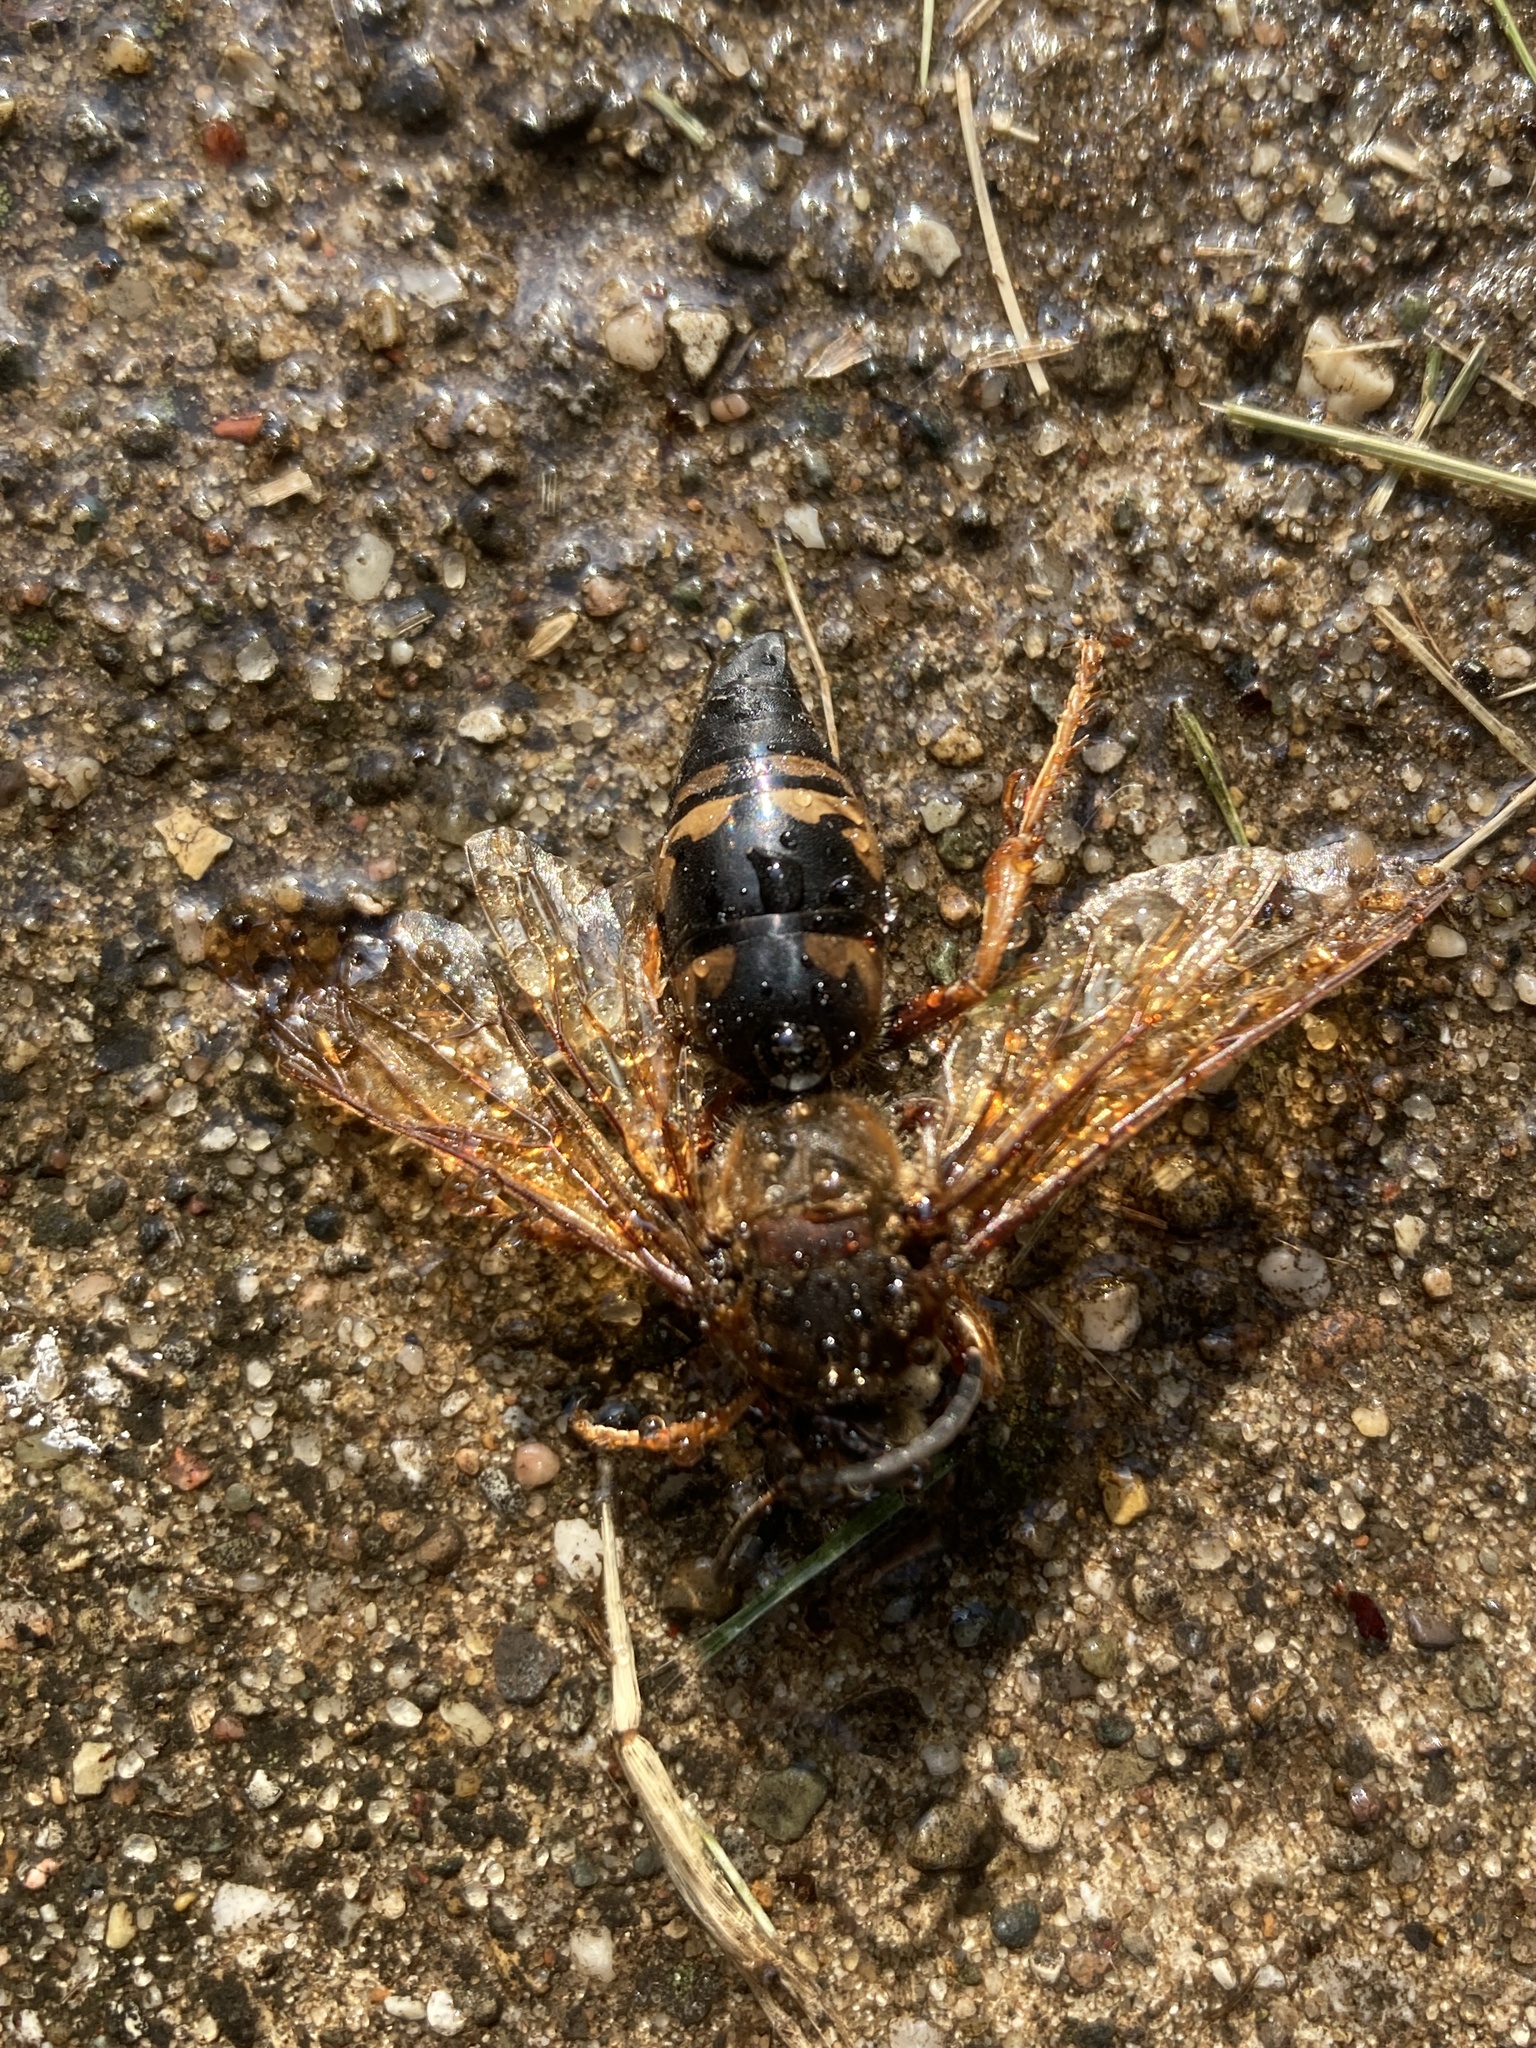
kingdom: Animalia
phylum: Arthropoda
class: Insecta
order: Hymenoptera
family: Crabronidae
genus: Sphecius
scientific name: Sphecius speciosus
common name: Cicada killer
